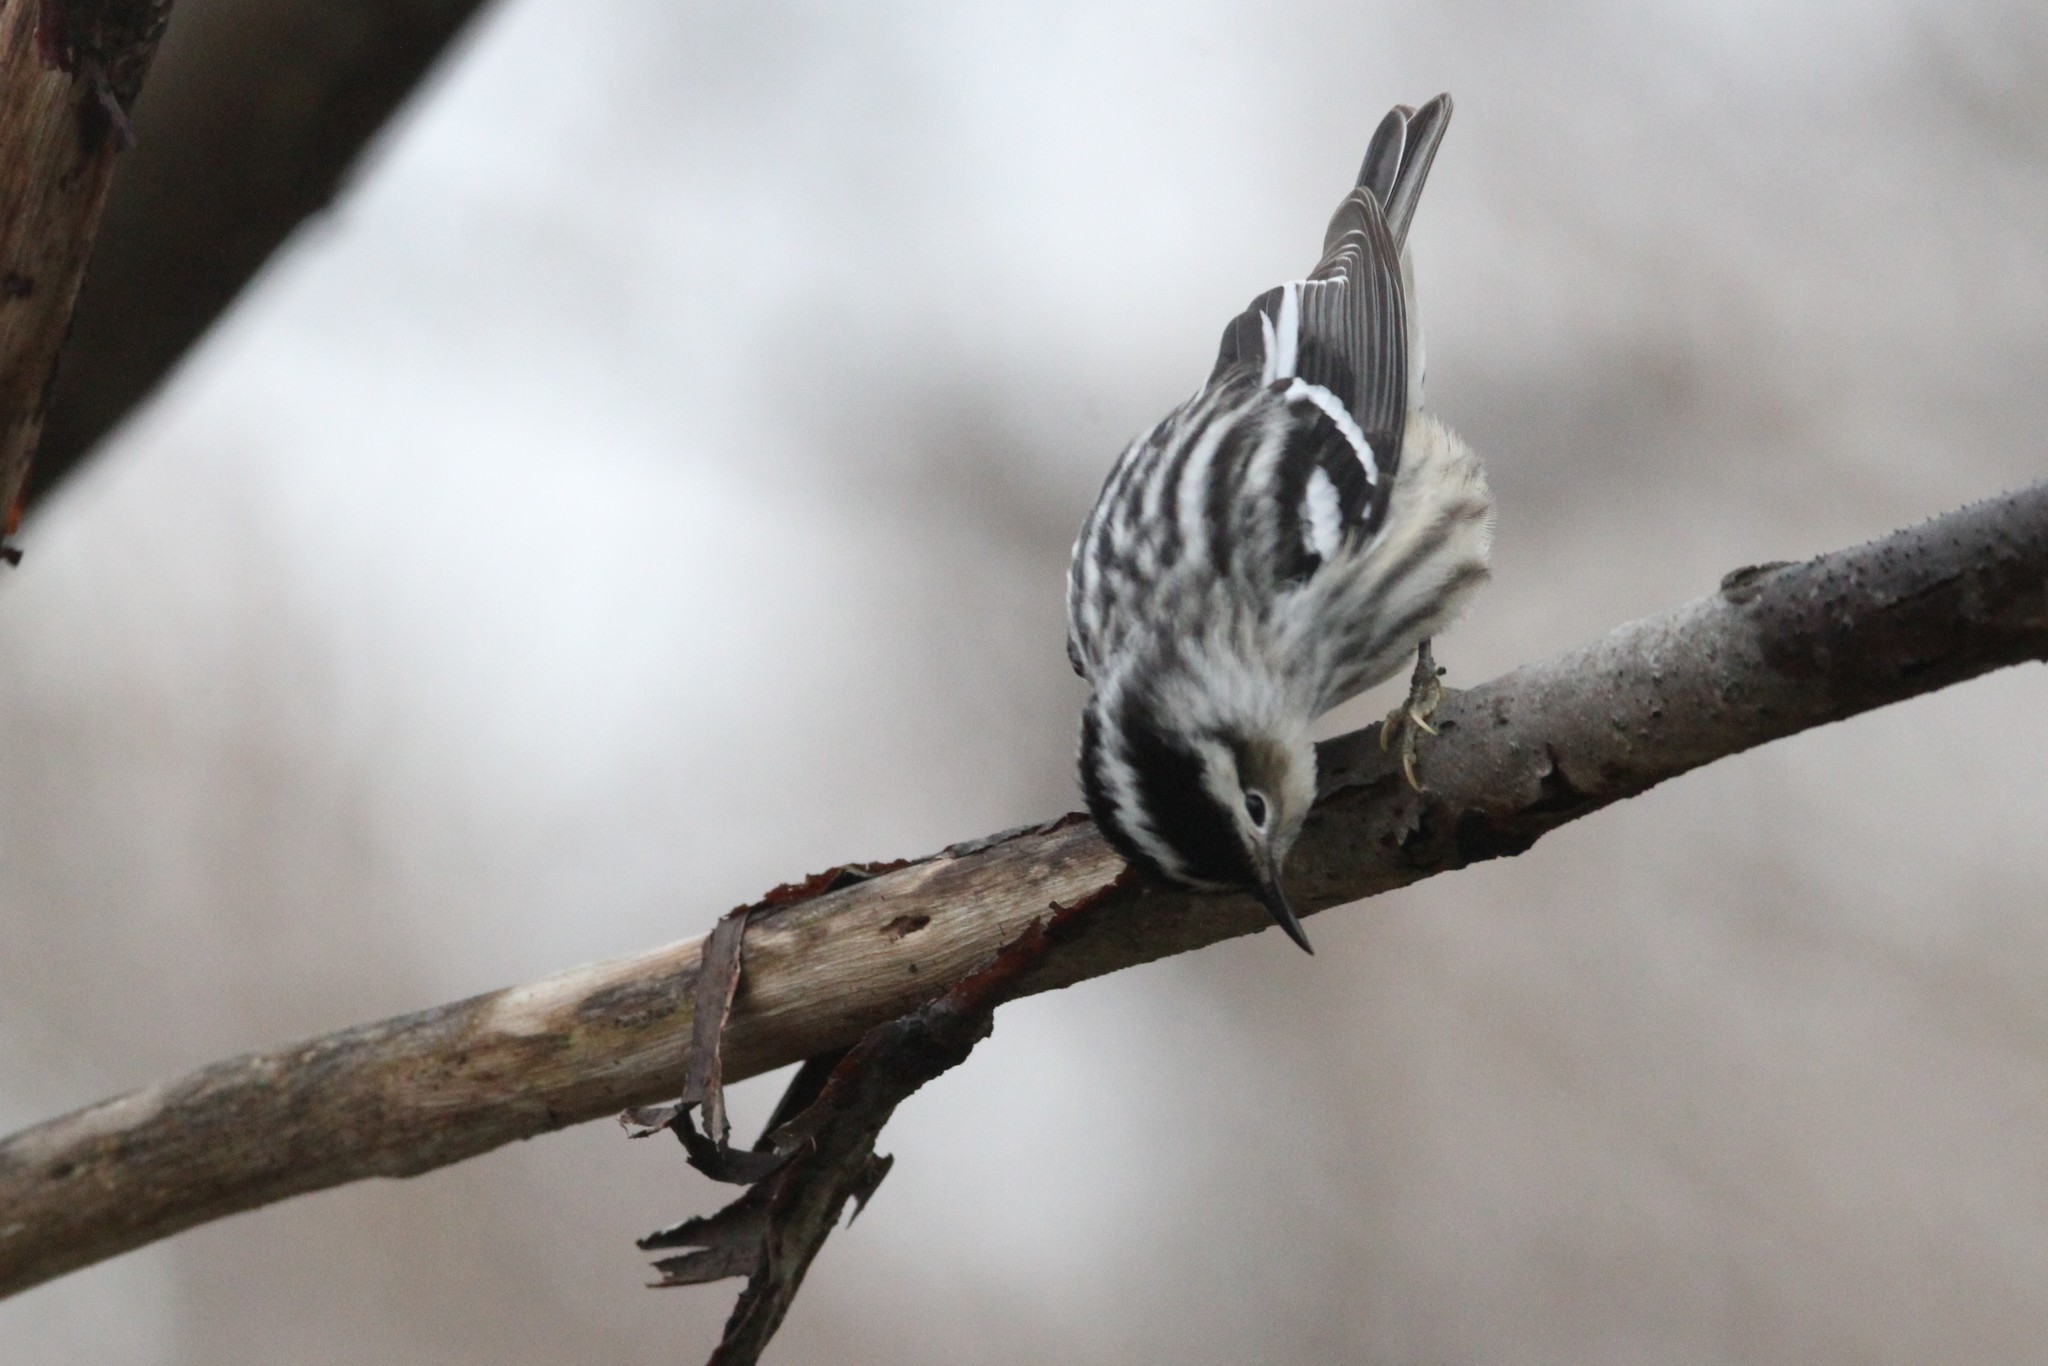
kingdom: Animalia
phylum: Chordata
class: Aves
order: Passeriformes
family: Parulidae
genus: Mniotilta
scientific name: Mniotilta varia
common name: Black-and-white warbler
